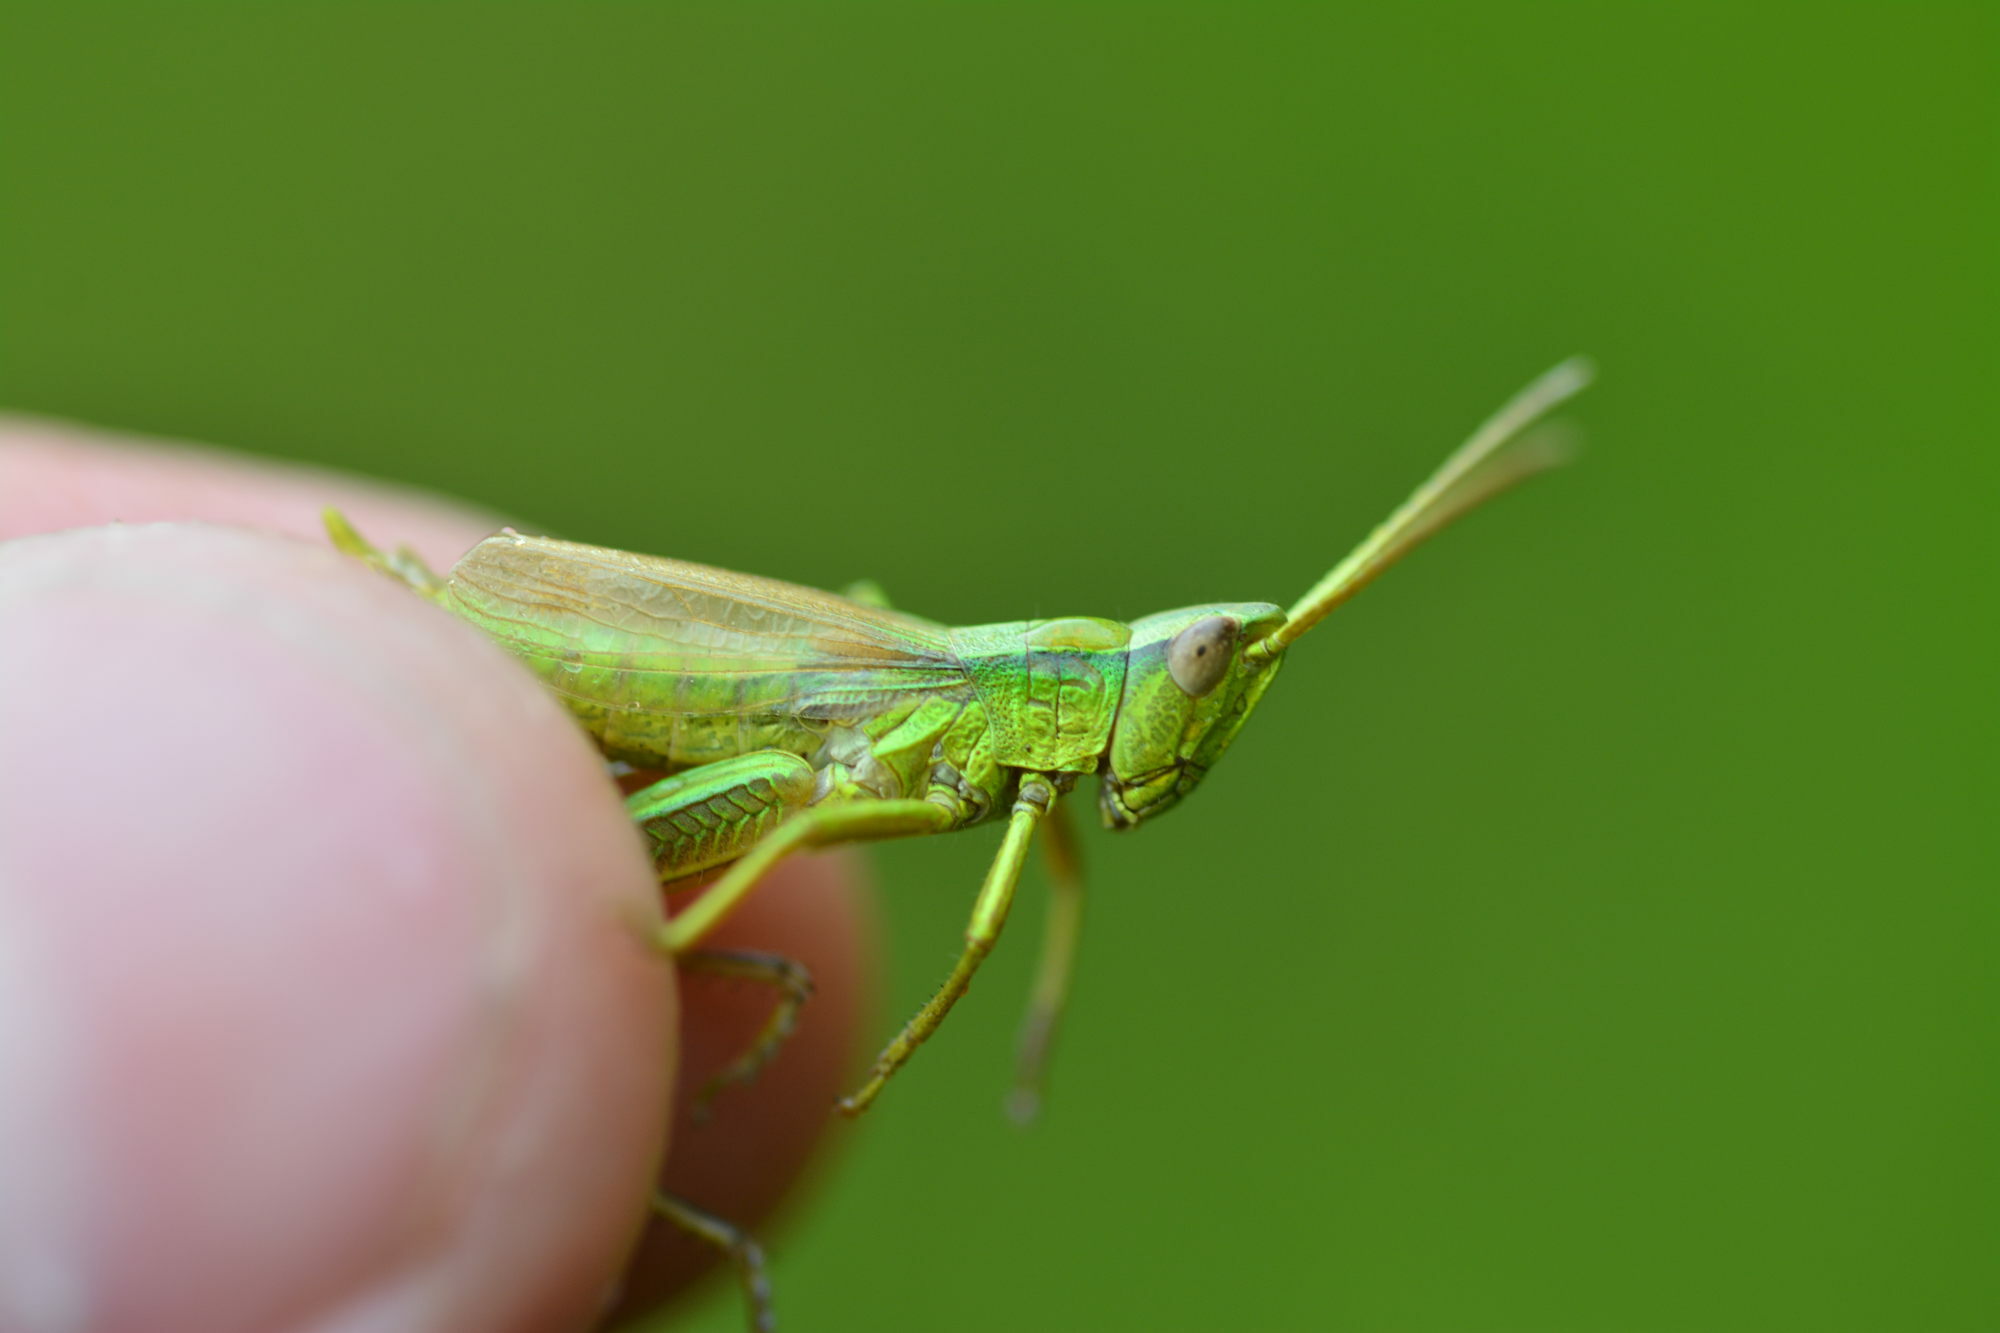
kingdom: Animalia
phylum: Arthropoda
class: Insecta
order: Orthoptera
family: Acrididae
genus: Chrysochraon
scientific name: Chrysochraon dispar
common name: Large gold grasshopper
